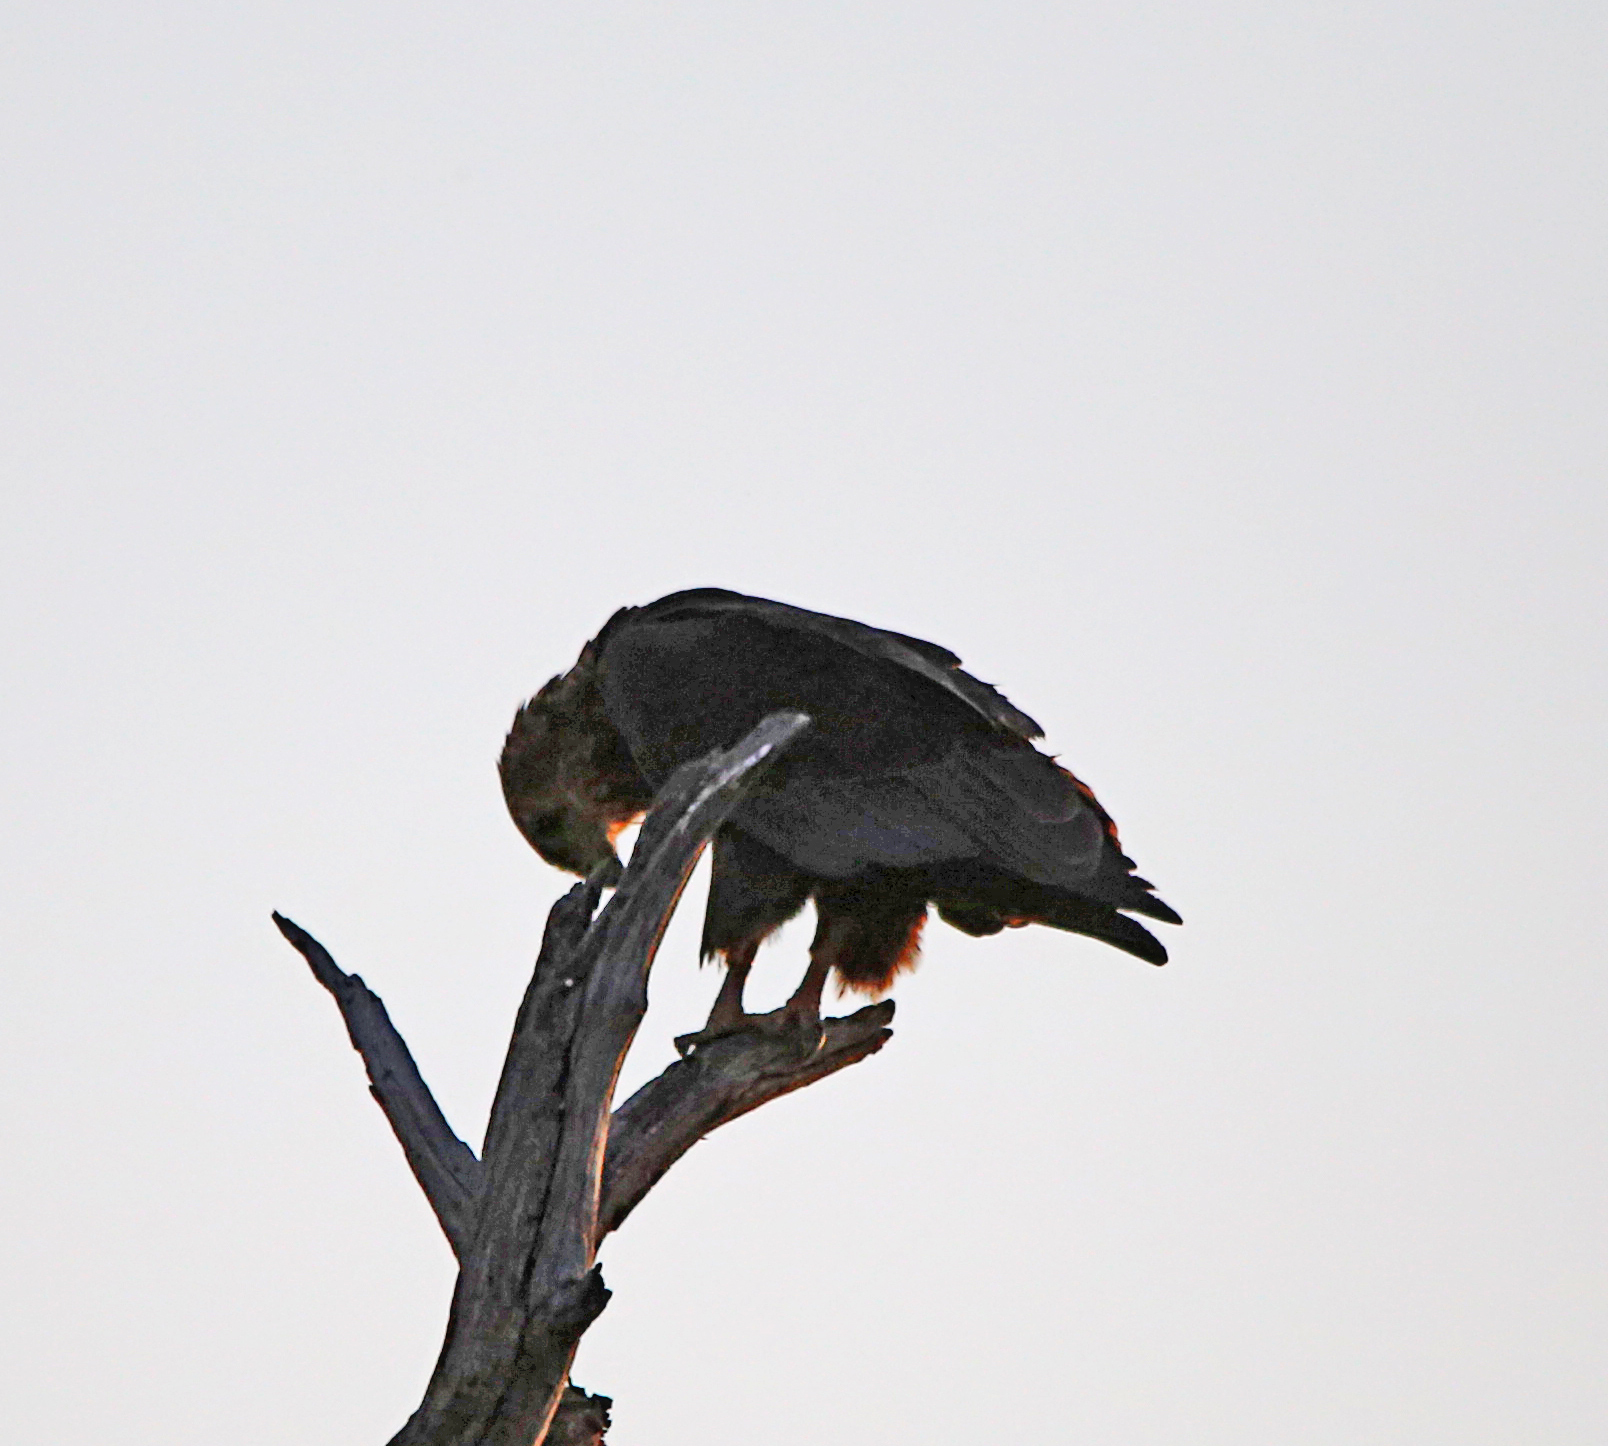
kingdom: Animalia
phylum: Chordata
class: Aves
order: Accipitriformes
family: Accipitridae
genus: Terathopius
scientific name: Terathopius ecaudatus
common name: Bateleur
